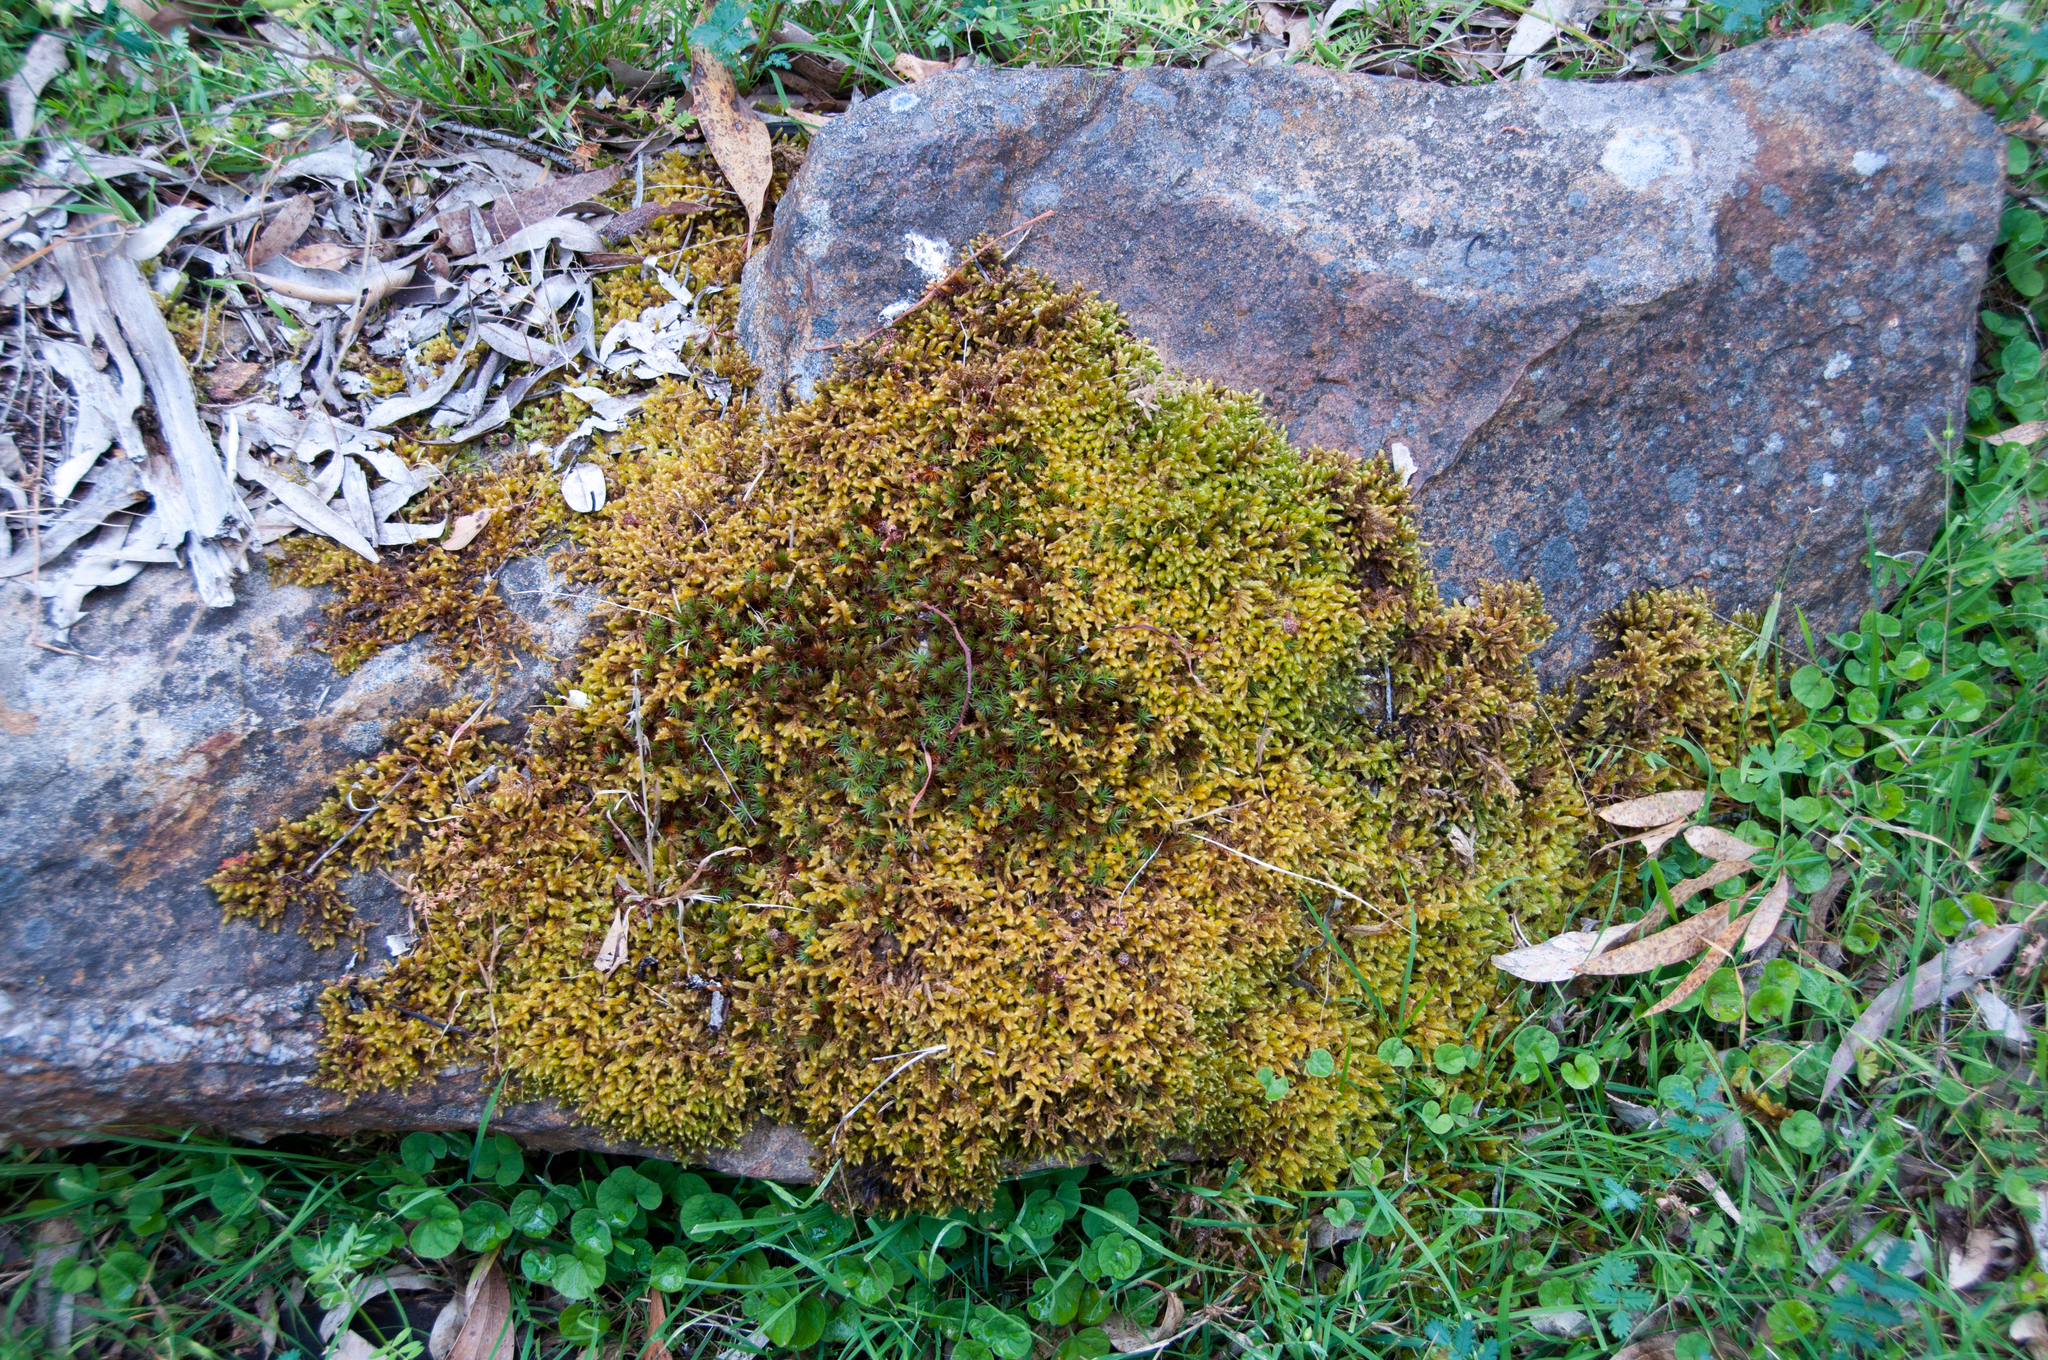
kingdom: Plantae
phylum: Bryophyta
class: Polytrichopsida
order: Polytrichales
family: Polytrichaceae
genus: Polytrichum
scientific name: Polytrichum juniperinum
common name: Juniper haircap moss
